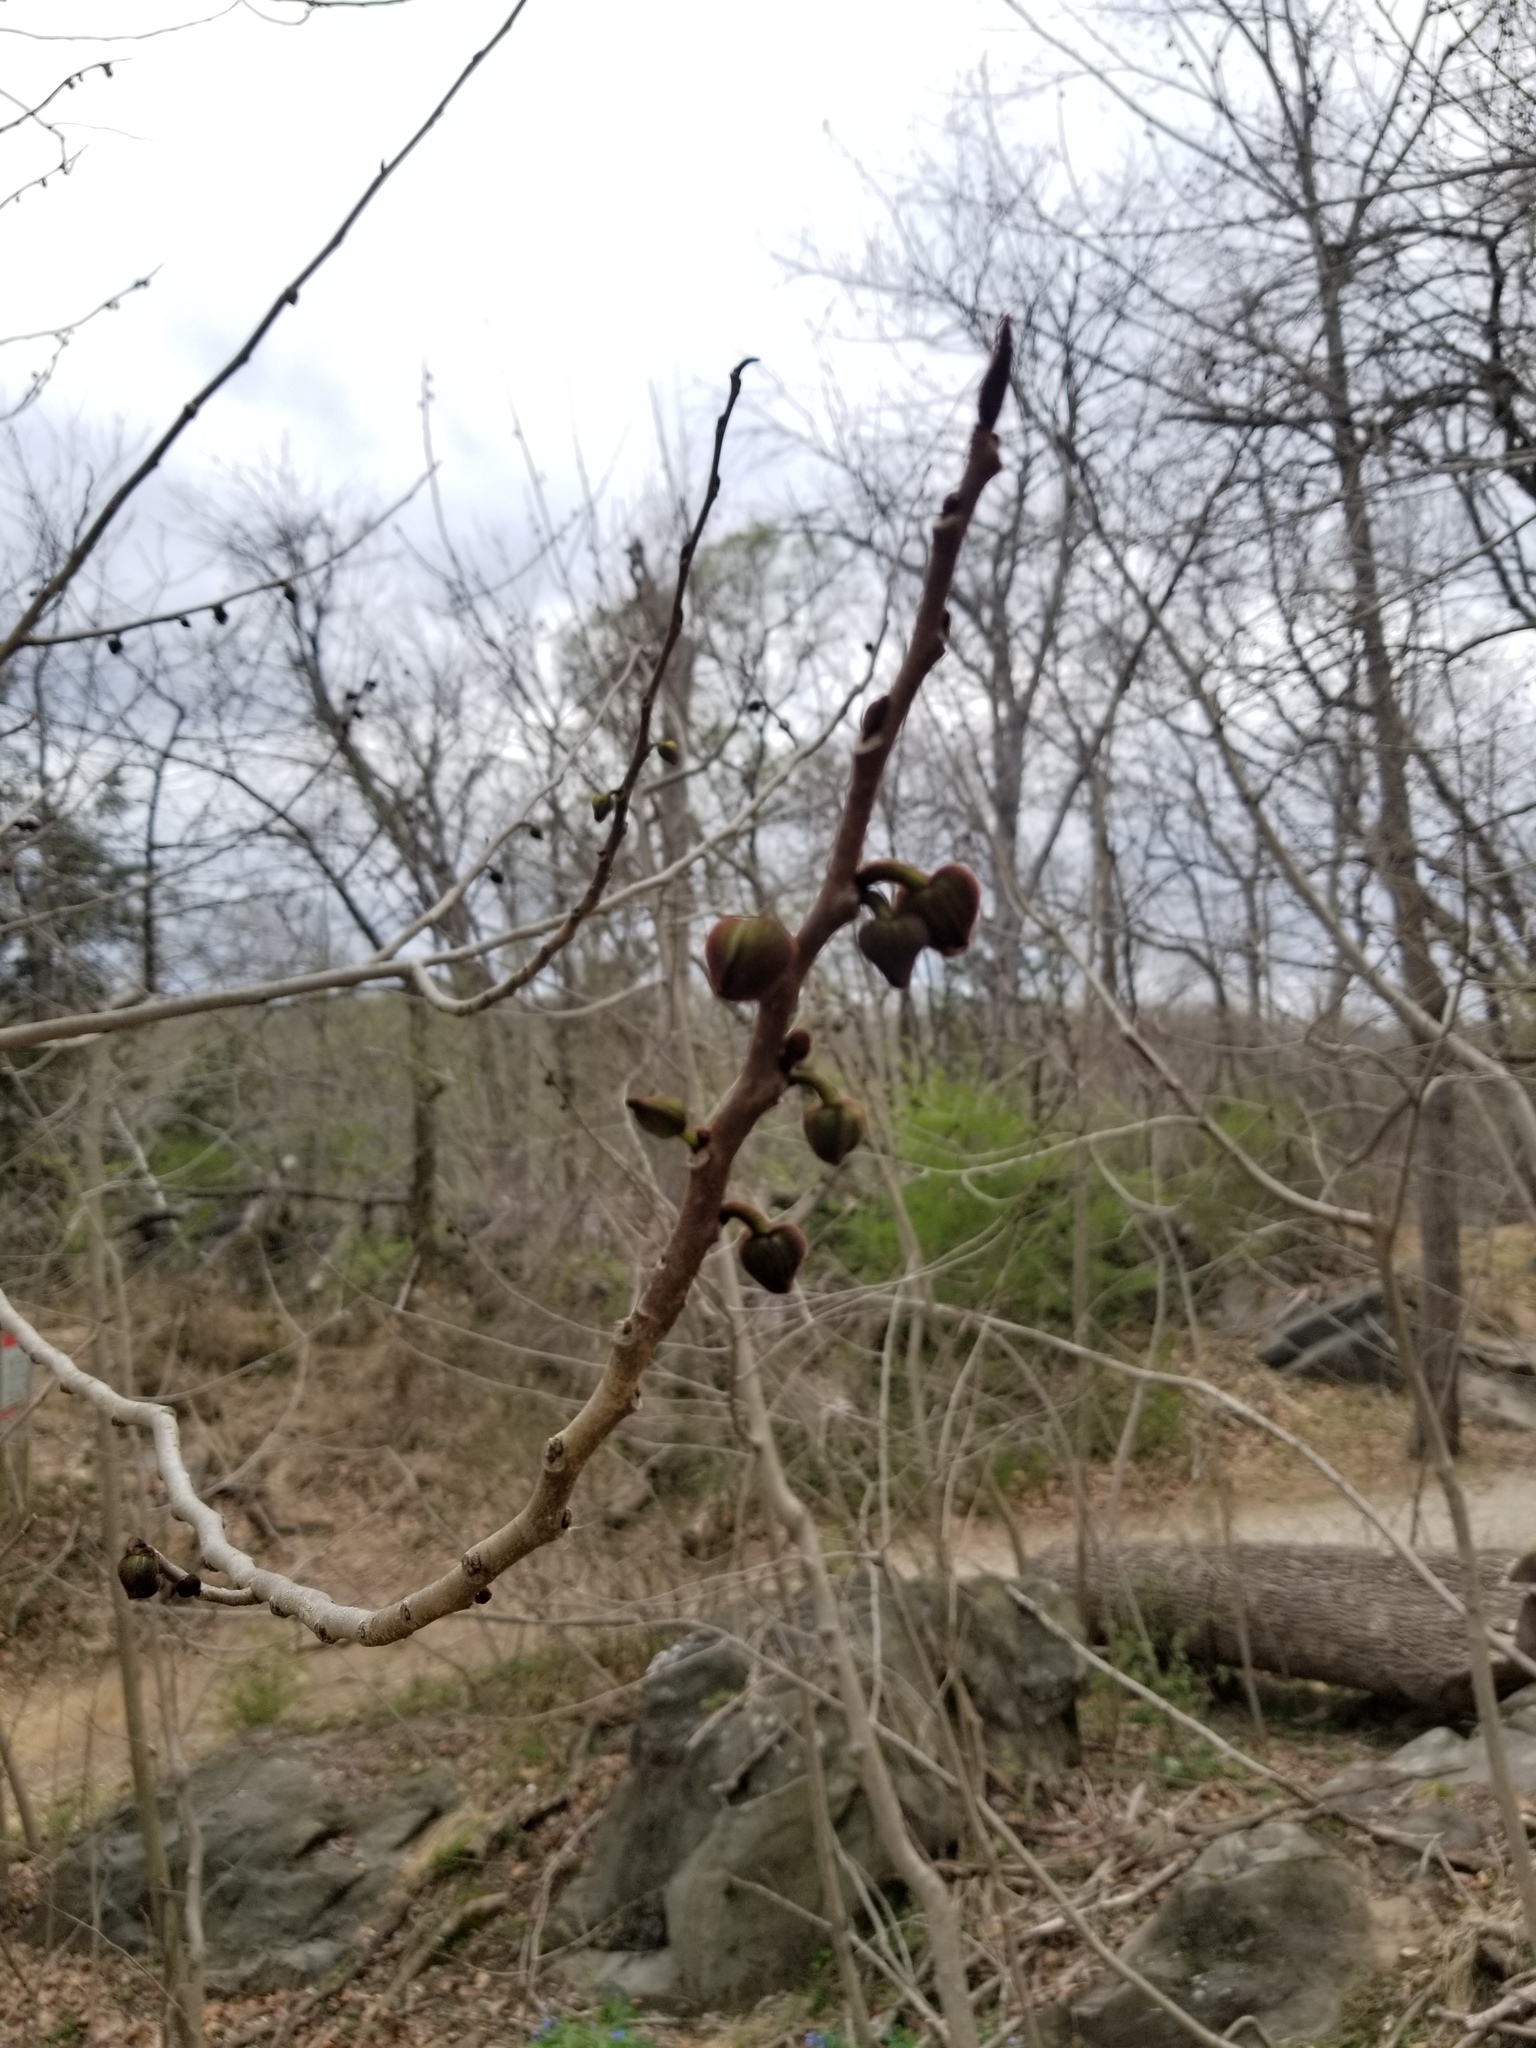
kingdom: Plantae
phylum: Tracheophyta
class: Magnoliopsida
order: Magnoliales
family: Annonaceae
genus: Asimina
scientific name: Asimina triloba
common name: Dog-banana
